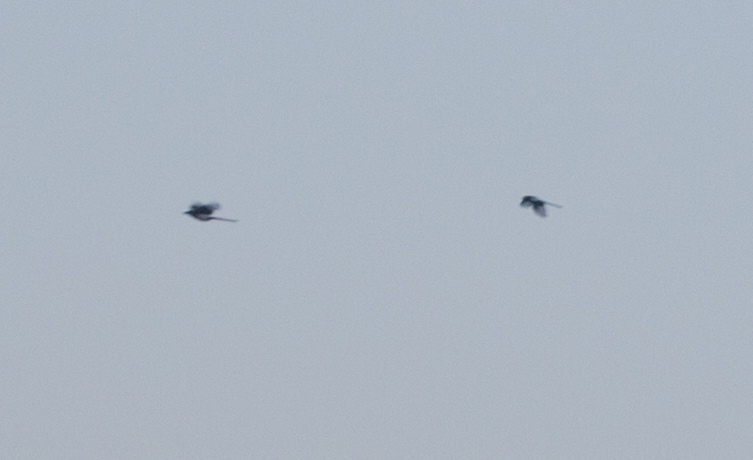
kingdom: Animalia
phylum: Chordata
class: Aves
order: Passeriformes
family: Corvidae
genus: Pica
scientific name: Pica pica
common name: Eurasian magpie
